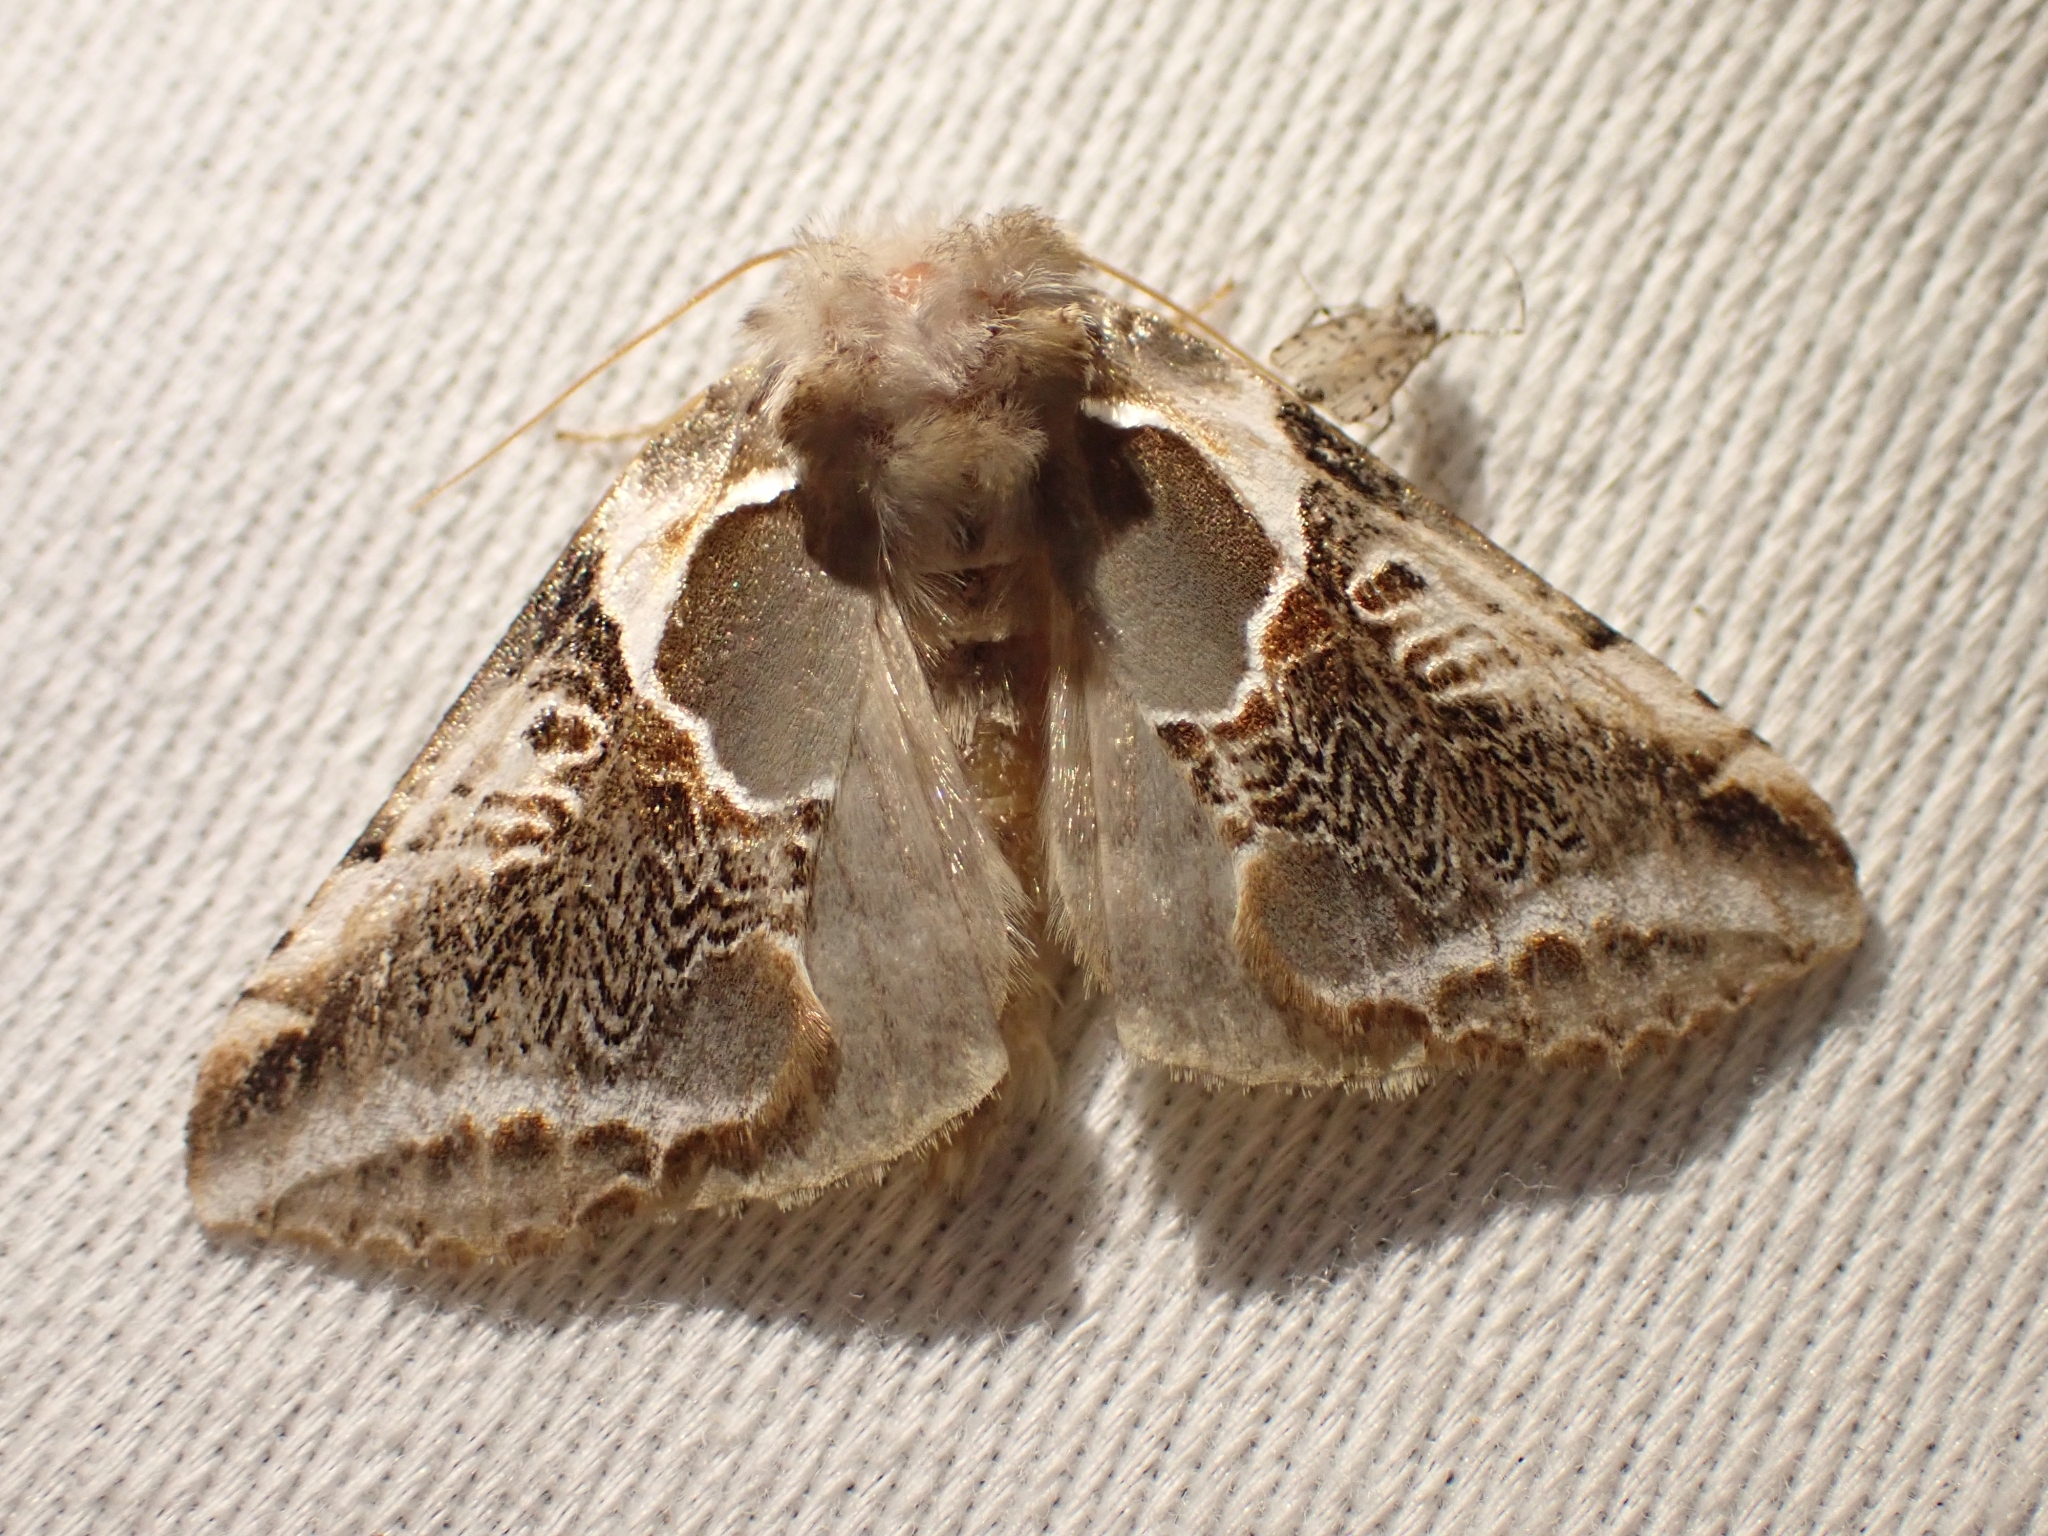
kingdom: Animalia
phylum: Arthropoda
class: Insecta
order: Lepidoptera
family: Drepanidae
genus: Habrosyne
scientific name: Habrosyne scripta
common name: Lettered habrosyne moth
